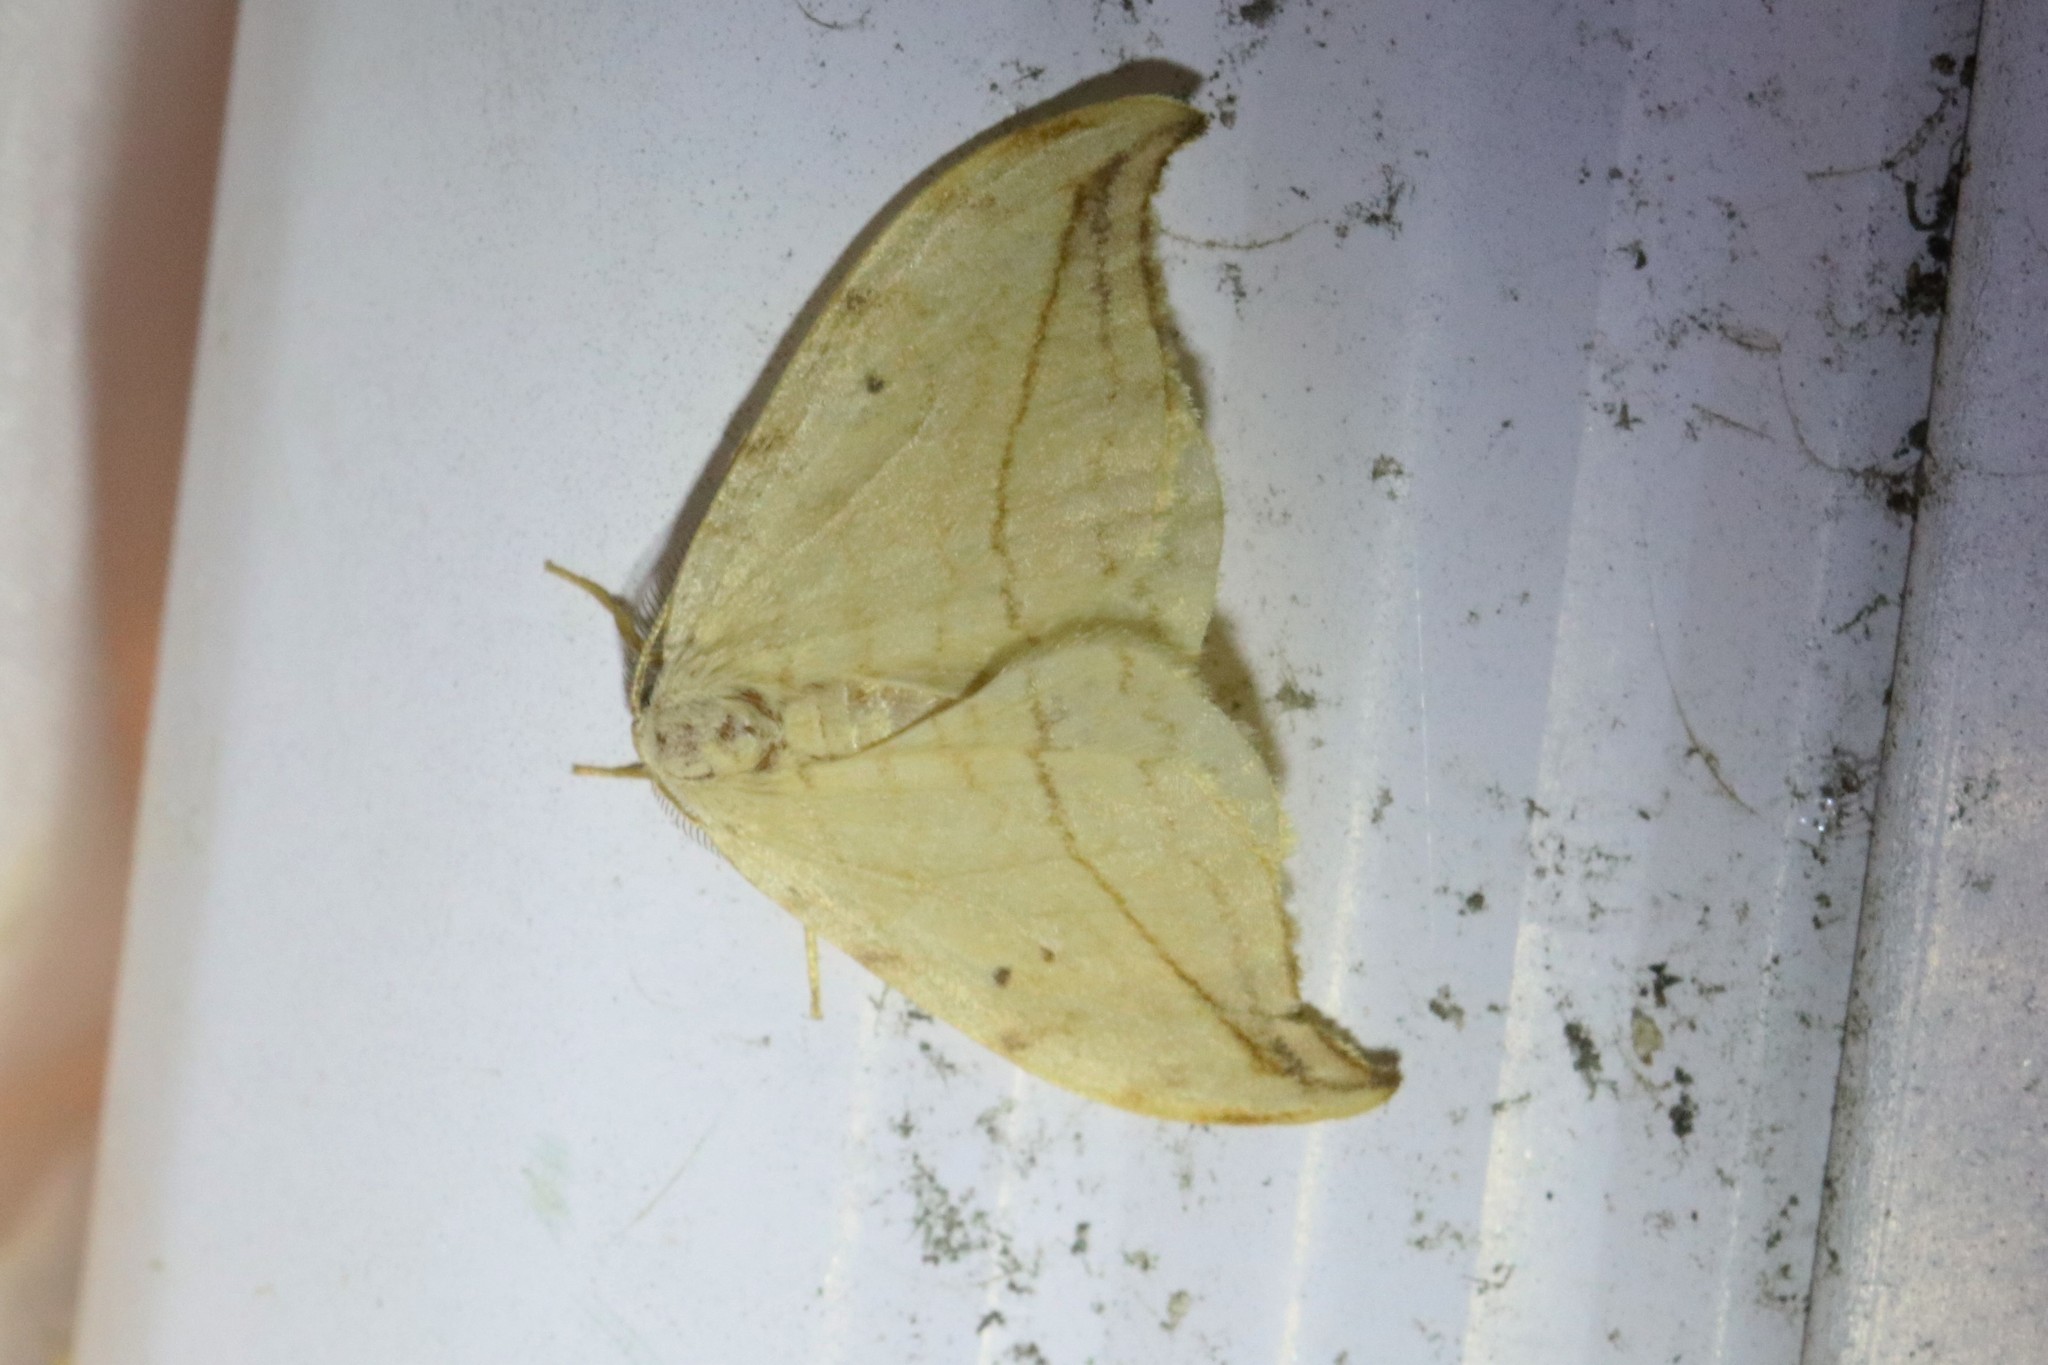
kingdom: Animalia
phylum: Arthropoda
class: Insecta
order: Lepidoptera
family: Drepanidae
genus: Drepana
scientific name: Drepana arcuata
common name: Arched hooktip moth
